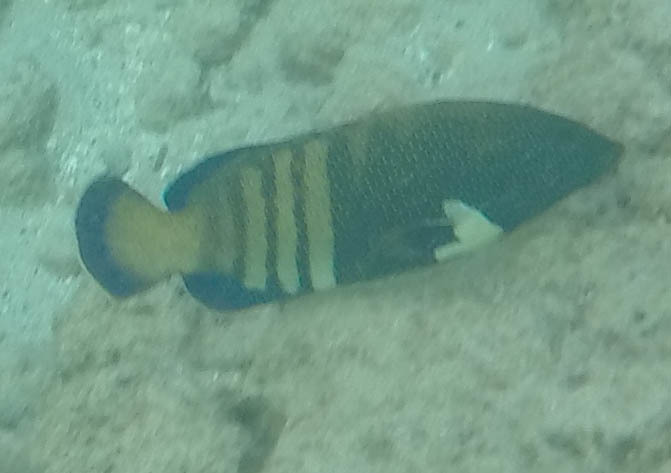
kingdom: Animalia
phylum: Chordata
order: Perciformes
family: Serranidae
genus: Cephalopholis
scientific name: Cephalopholis argus
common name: Peacock grouper
